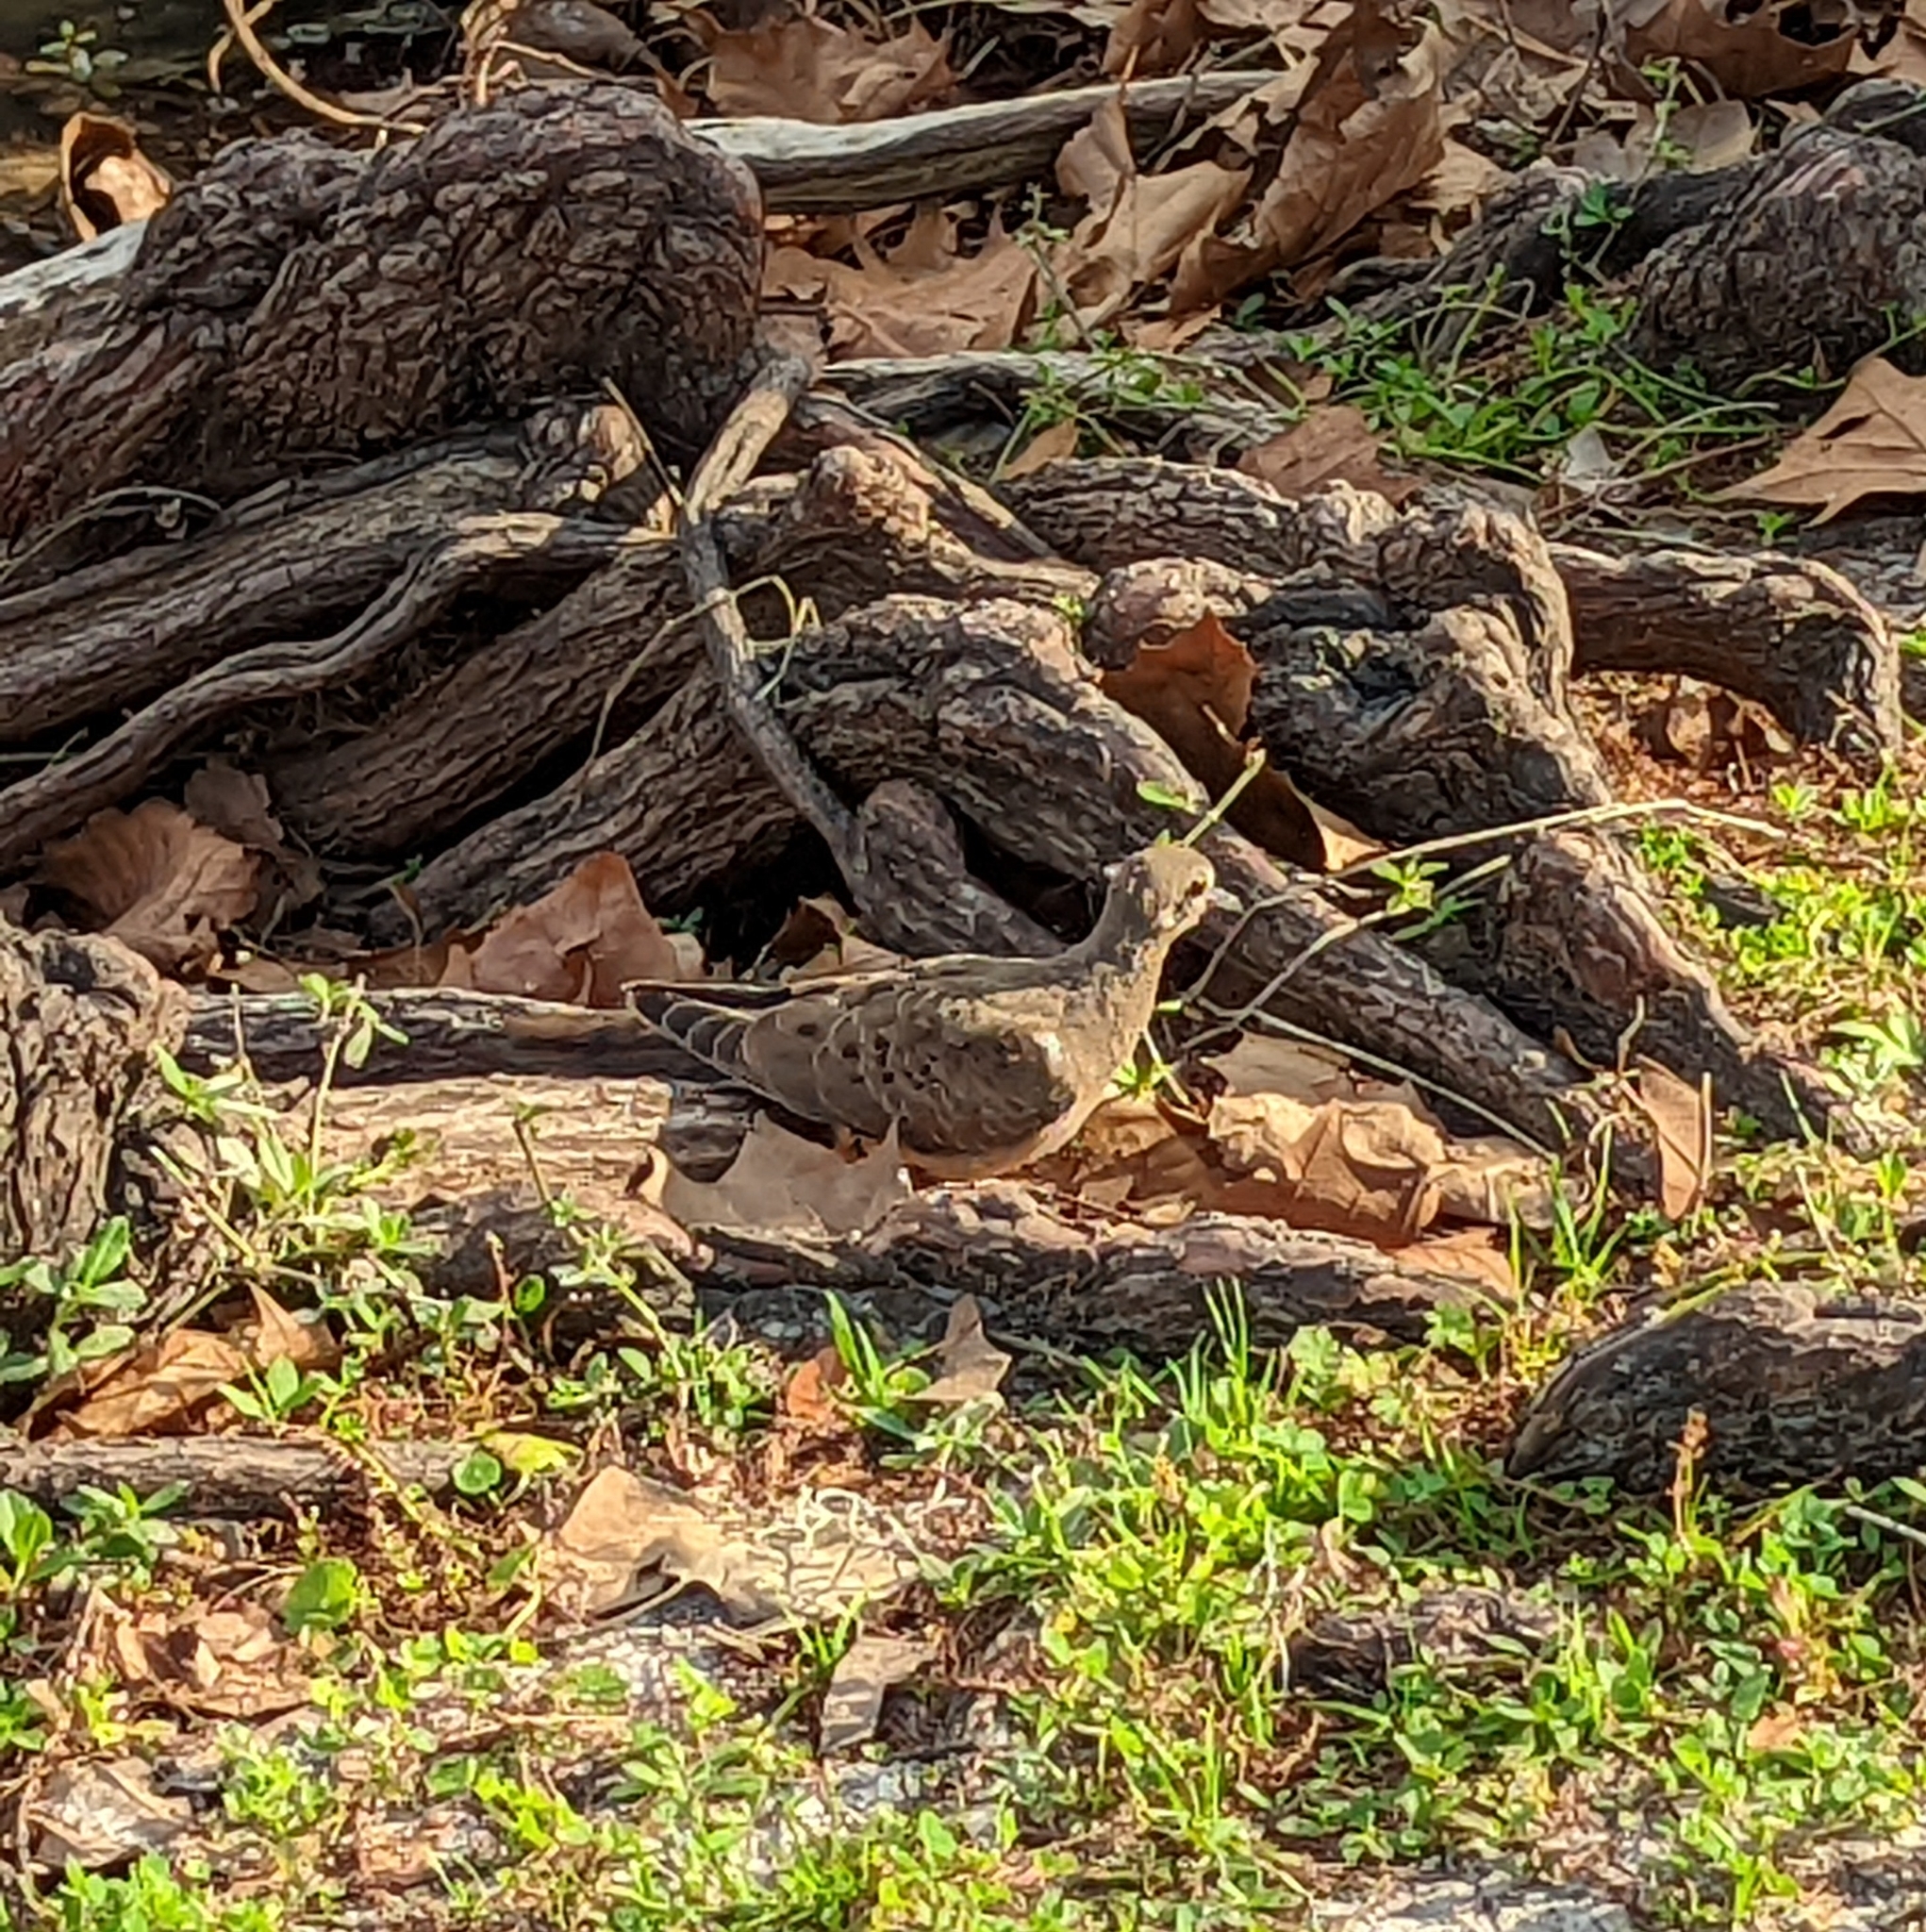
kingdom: Animalia
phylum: Chordata
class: Aves
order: Columbiformes
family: Columbidae
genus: Zenaida
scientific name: Zenaida macroura
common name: Mourning dove
